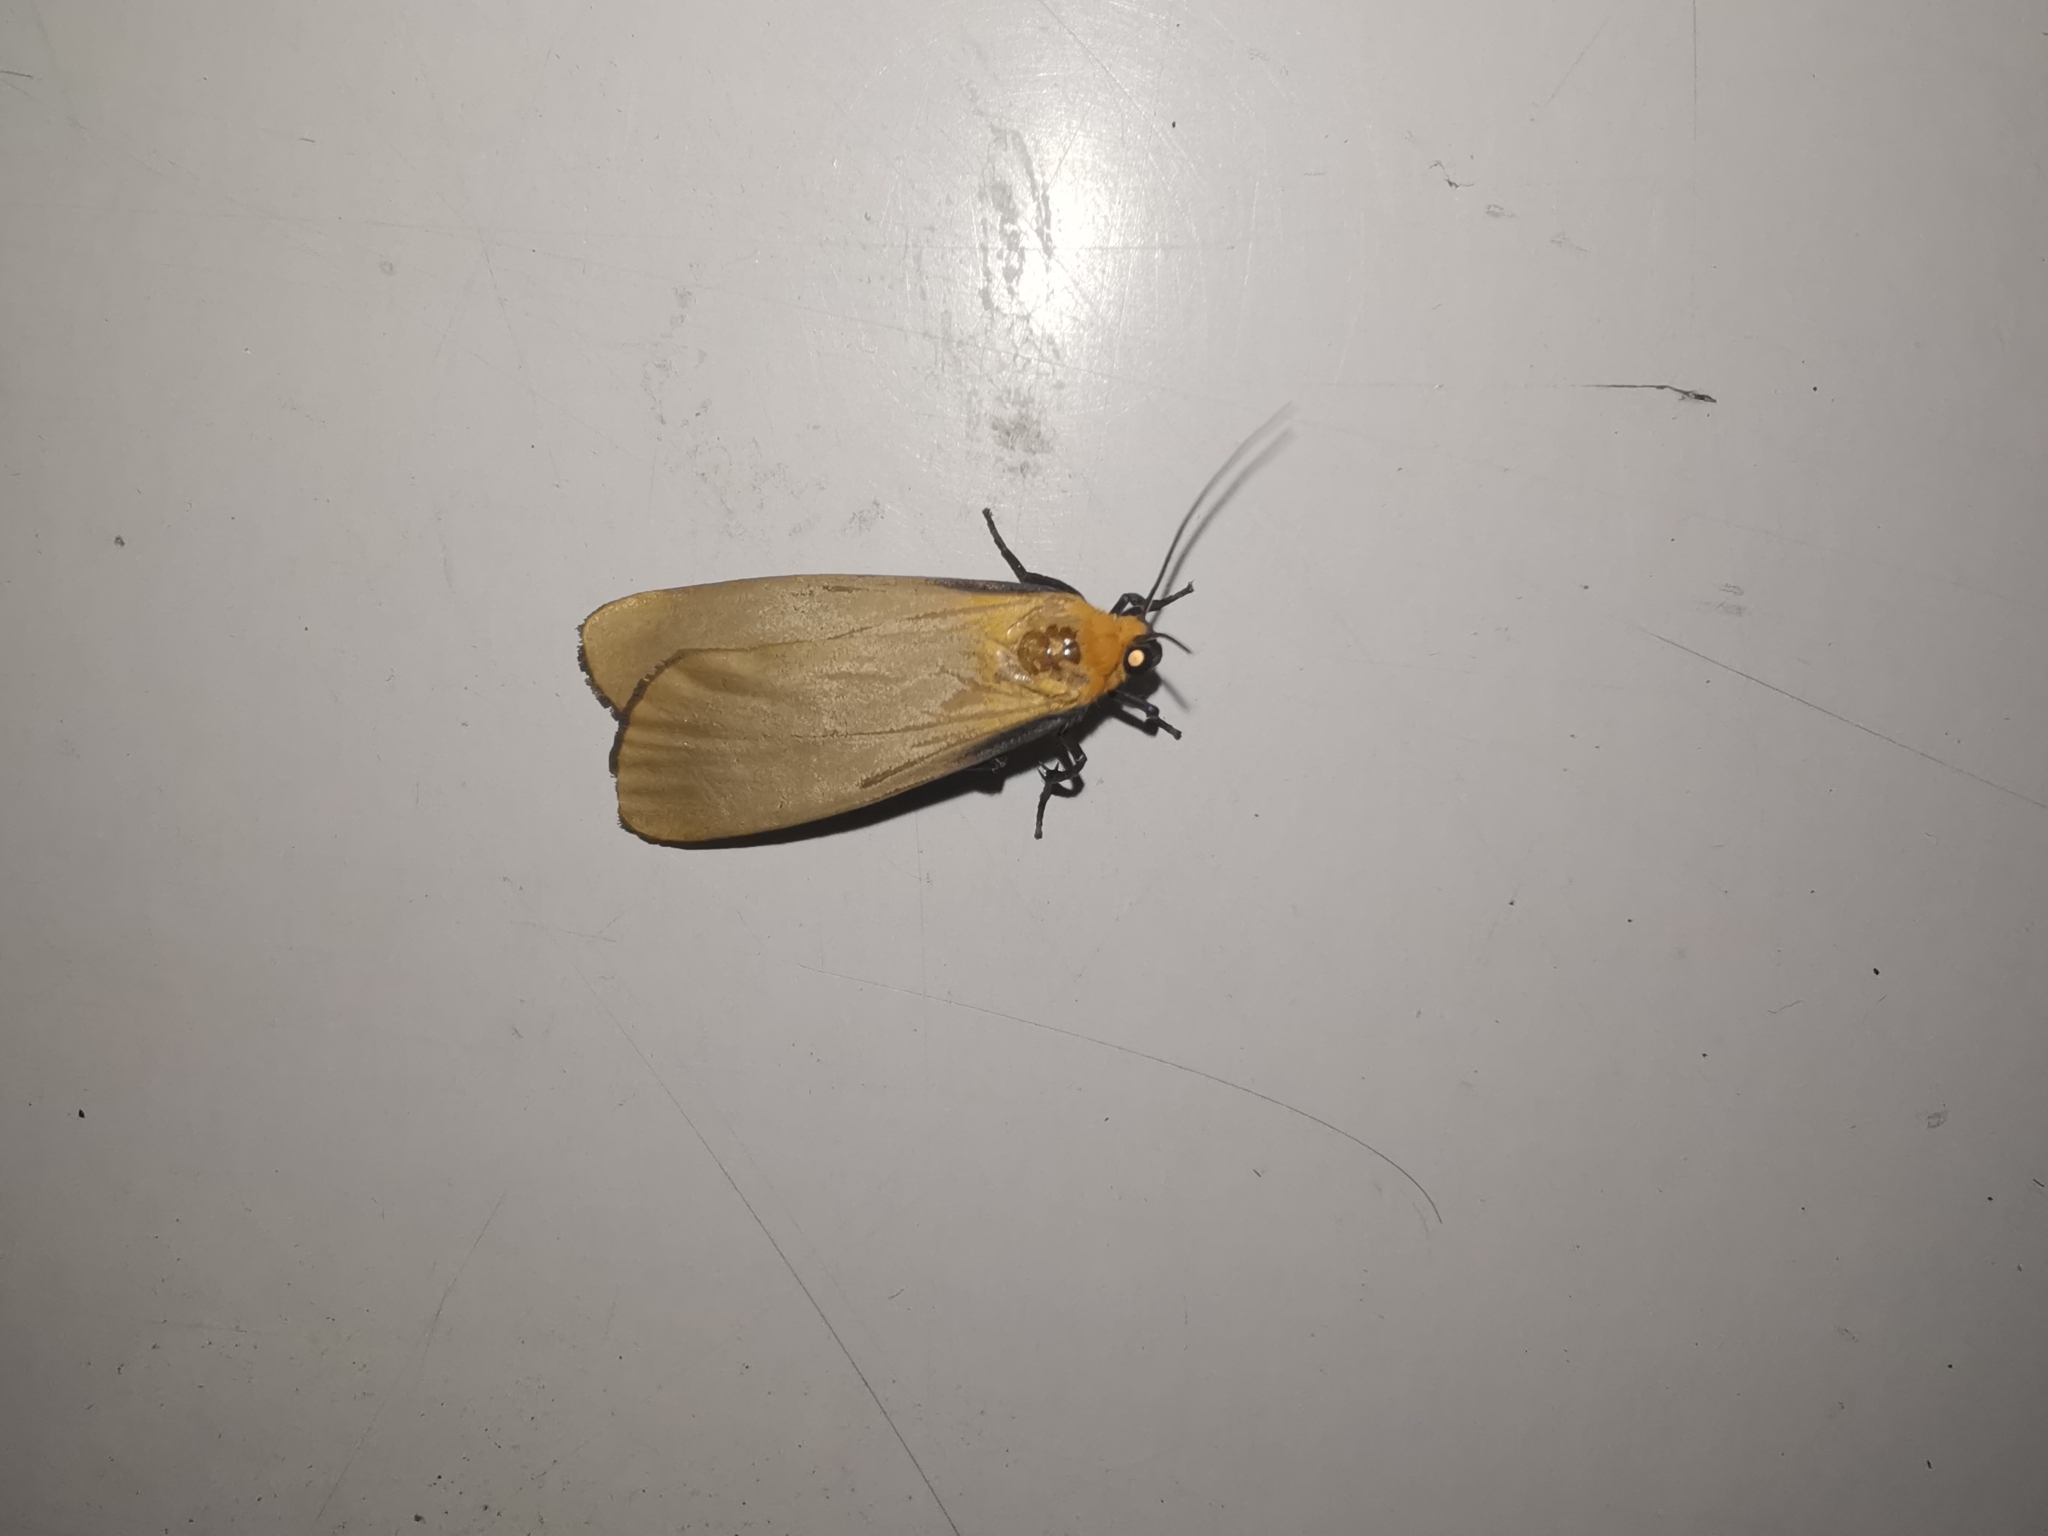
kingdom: Animalia
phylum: Arthropoda
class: Insecta
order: Lepidoptera
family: Erebidae
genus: Lithosia
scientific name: Lithosia quadra
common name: Four-spotted footman
